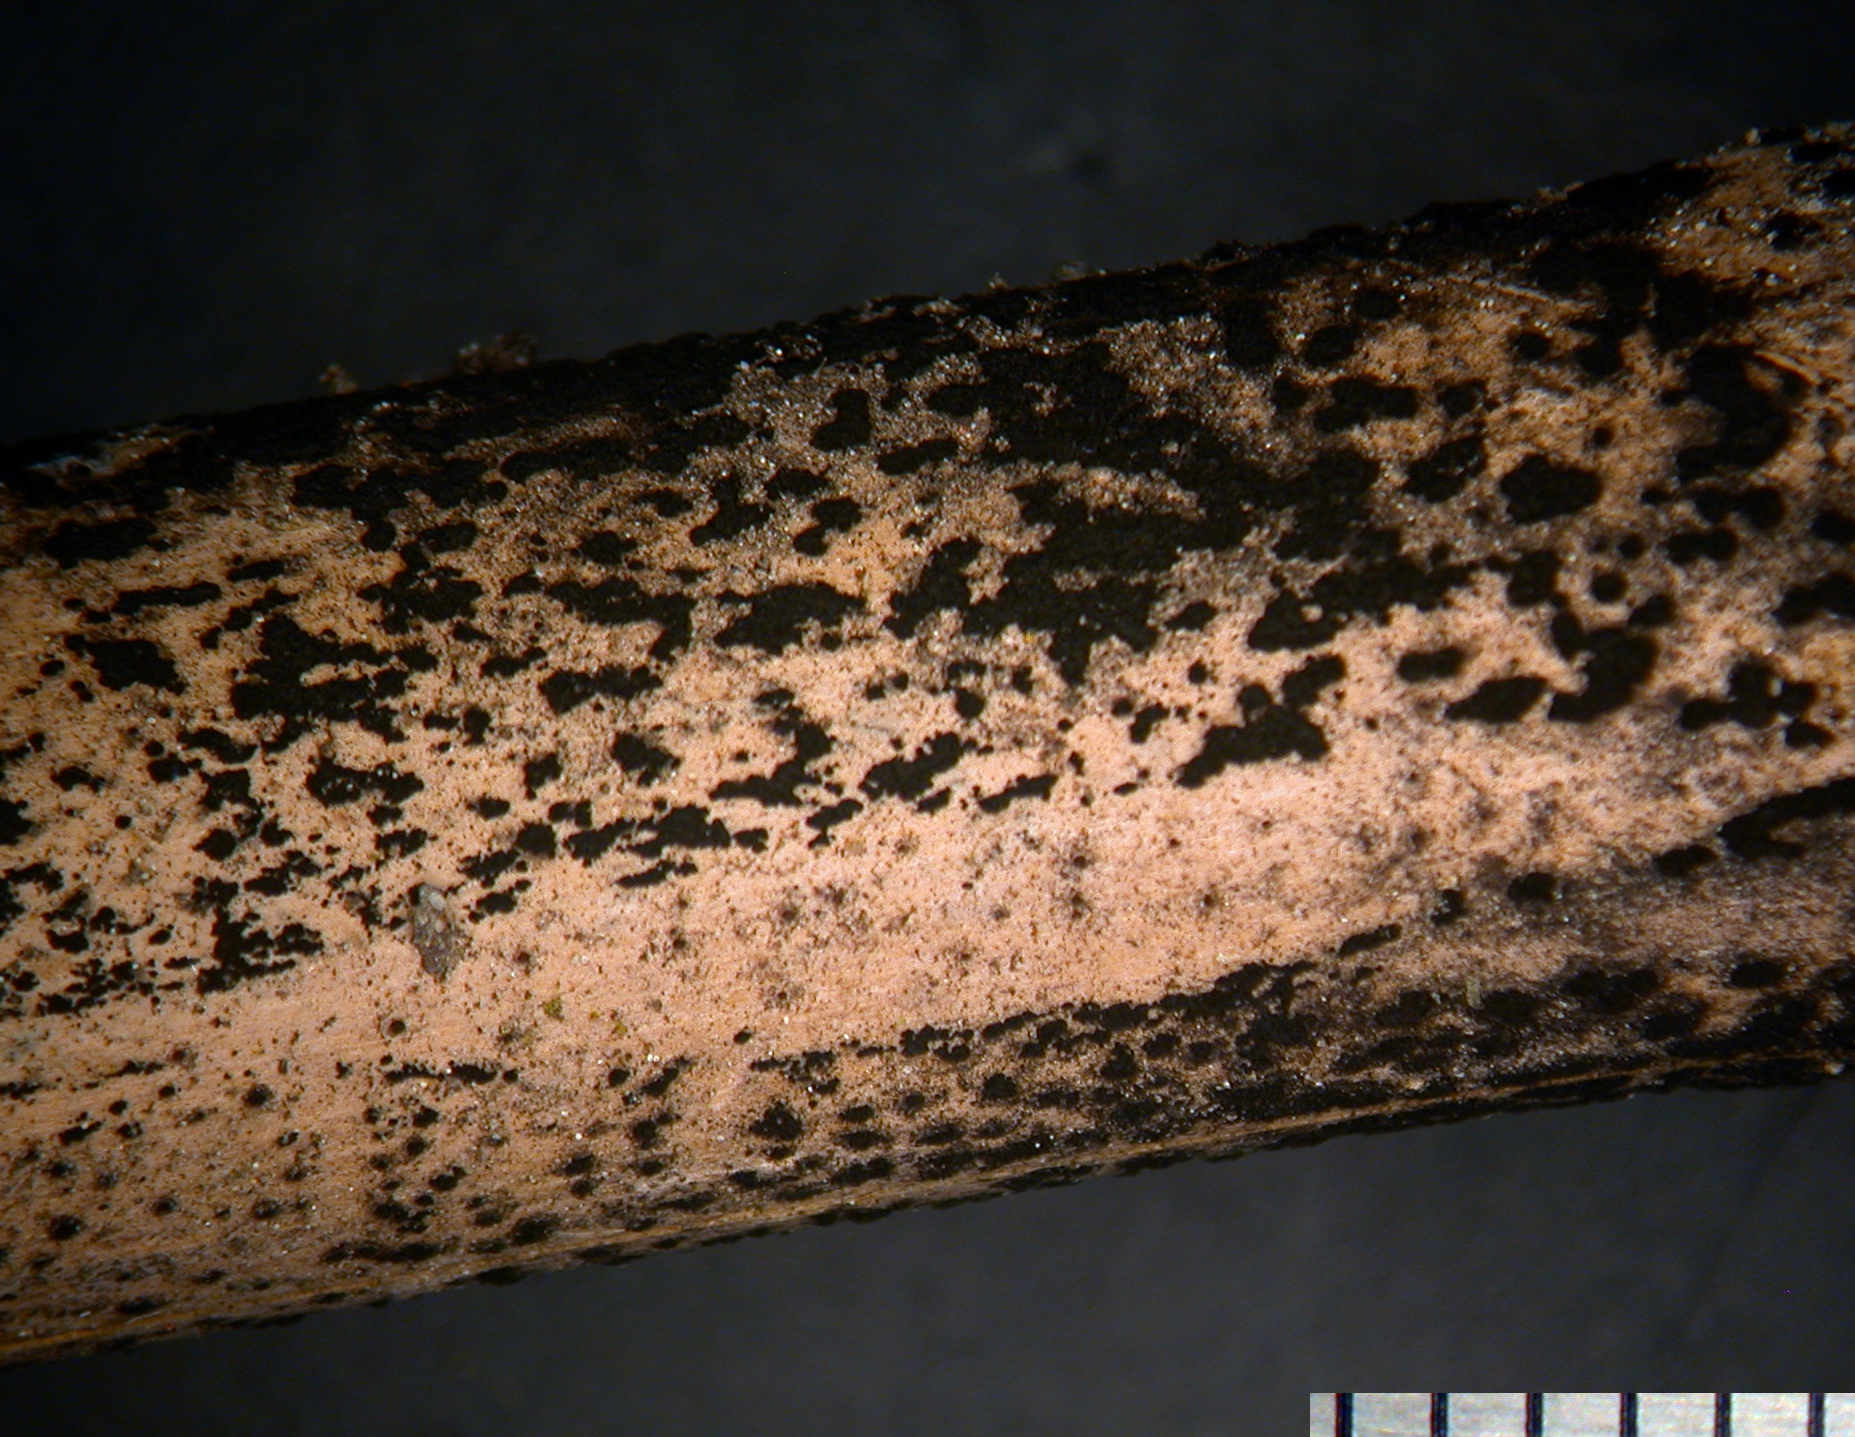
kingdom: Fungi
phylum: Ascomycota
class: Sordariomycetes
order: Xylariales
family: Apiosporaceae
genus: Apiospora
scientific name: Apiospora montagnei
